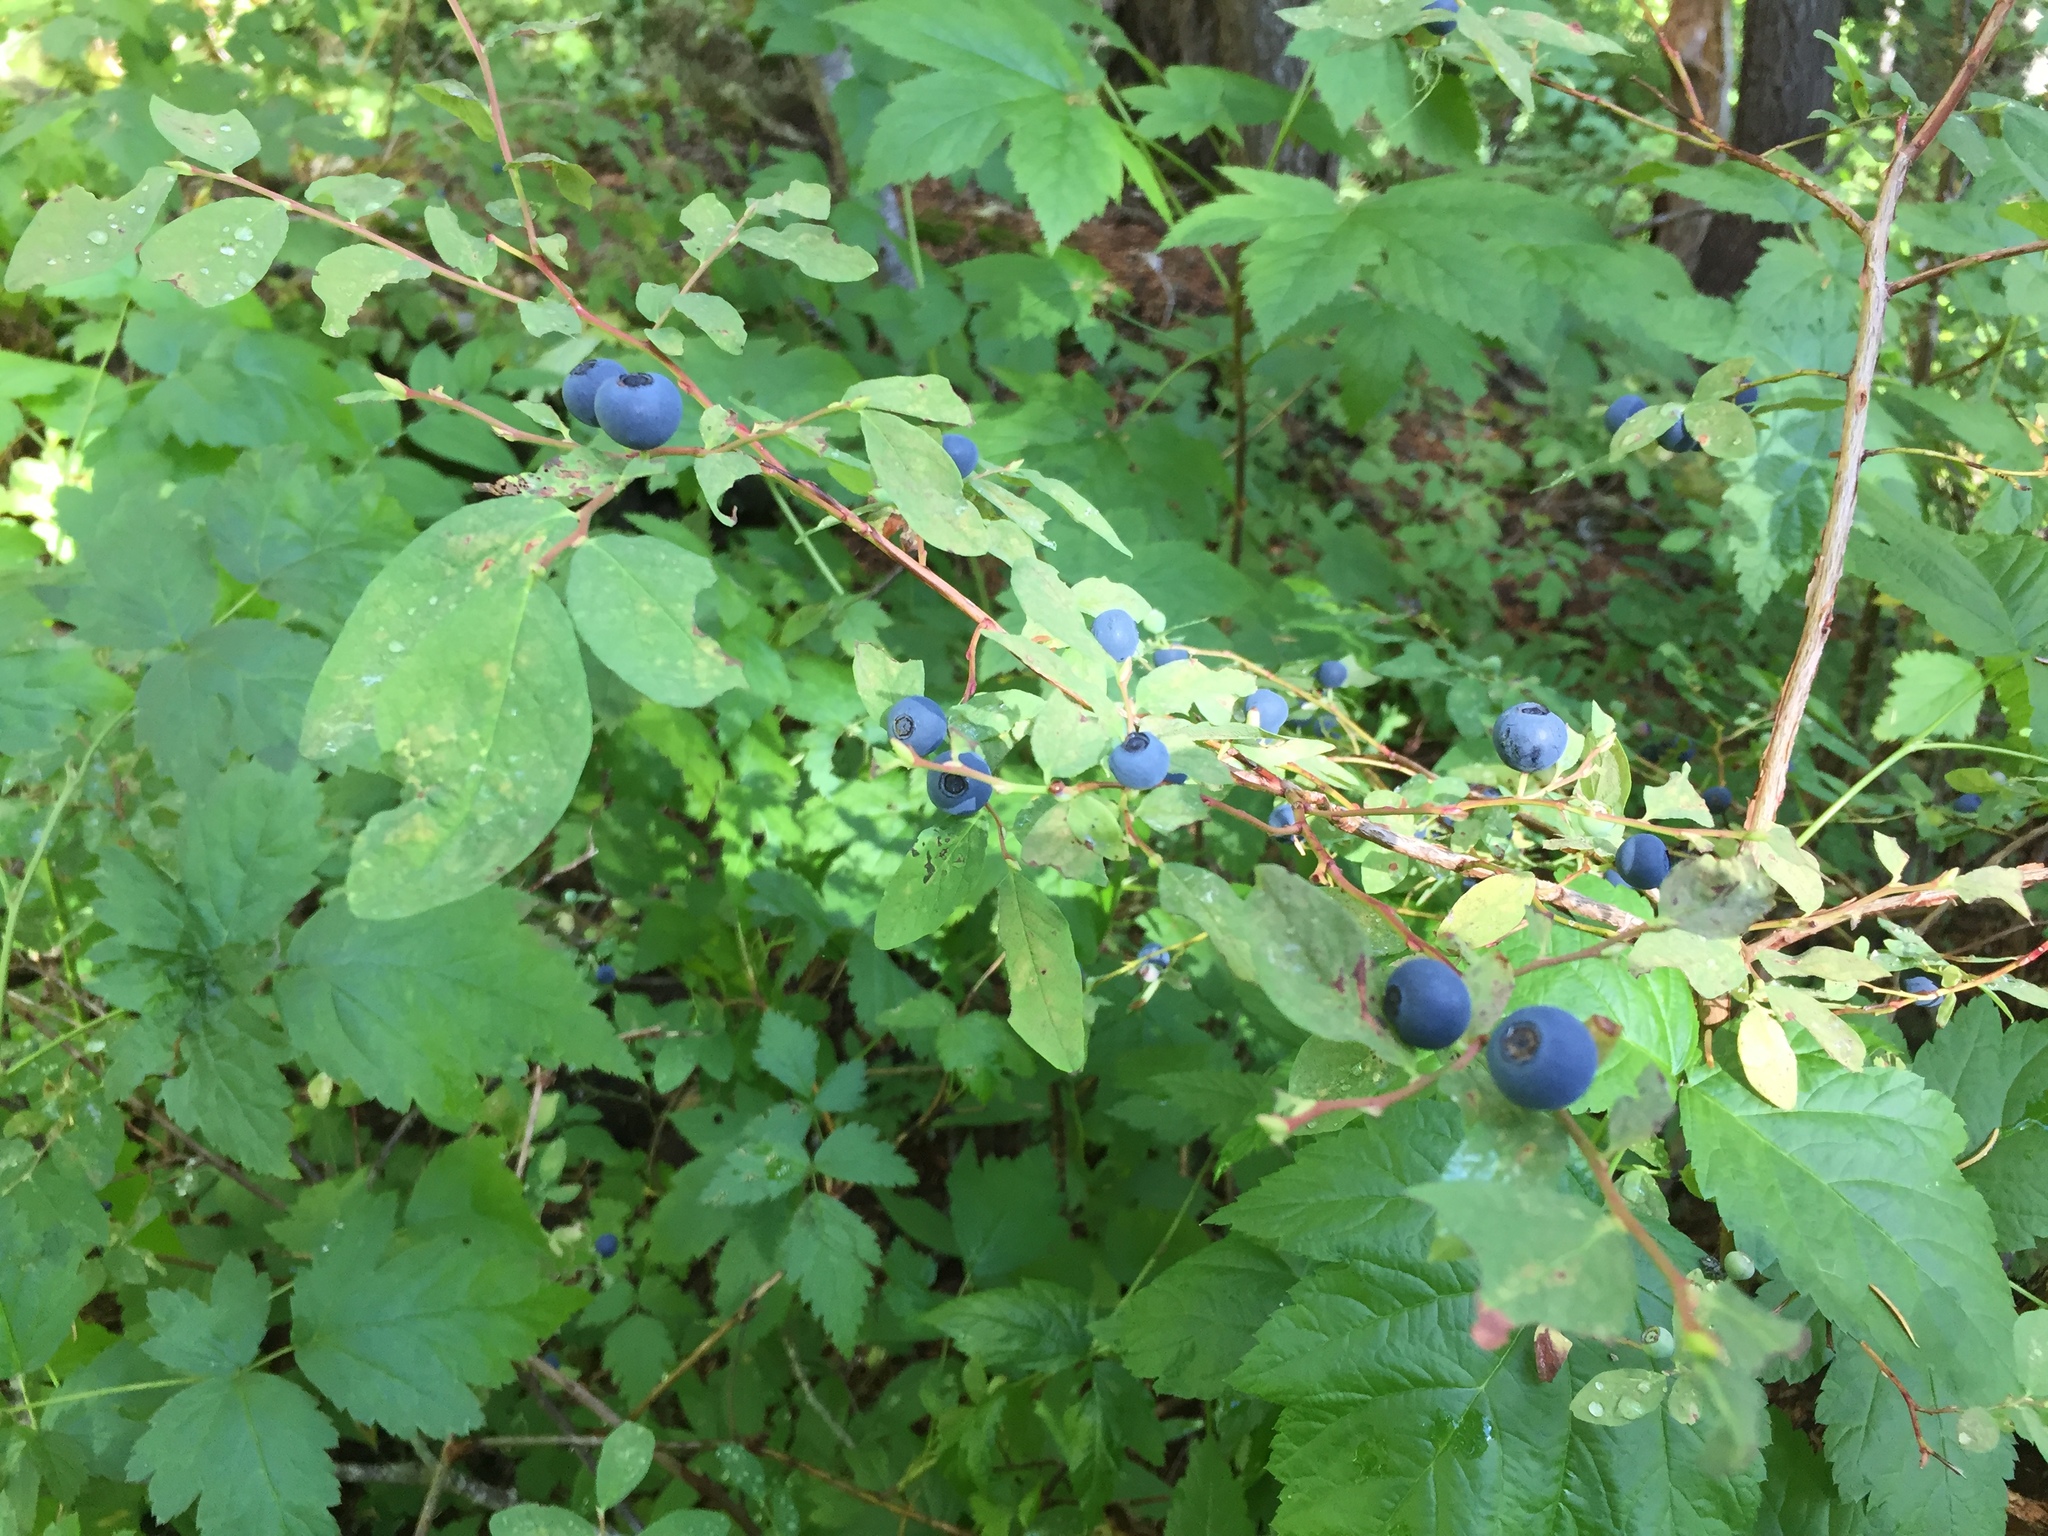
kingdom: Plantae
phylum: Tracheophyta
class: Magnoliopsida
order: Ericales
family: Ericaceae
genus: Vaccinium
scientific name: Vaccinium ovalifolium
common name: Early blueberry
